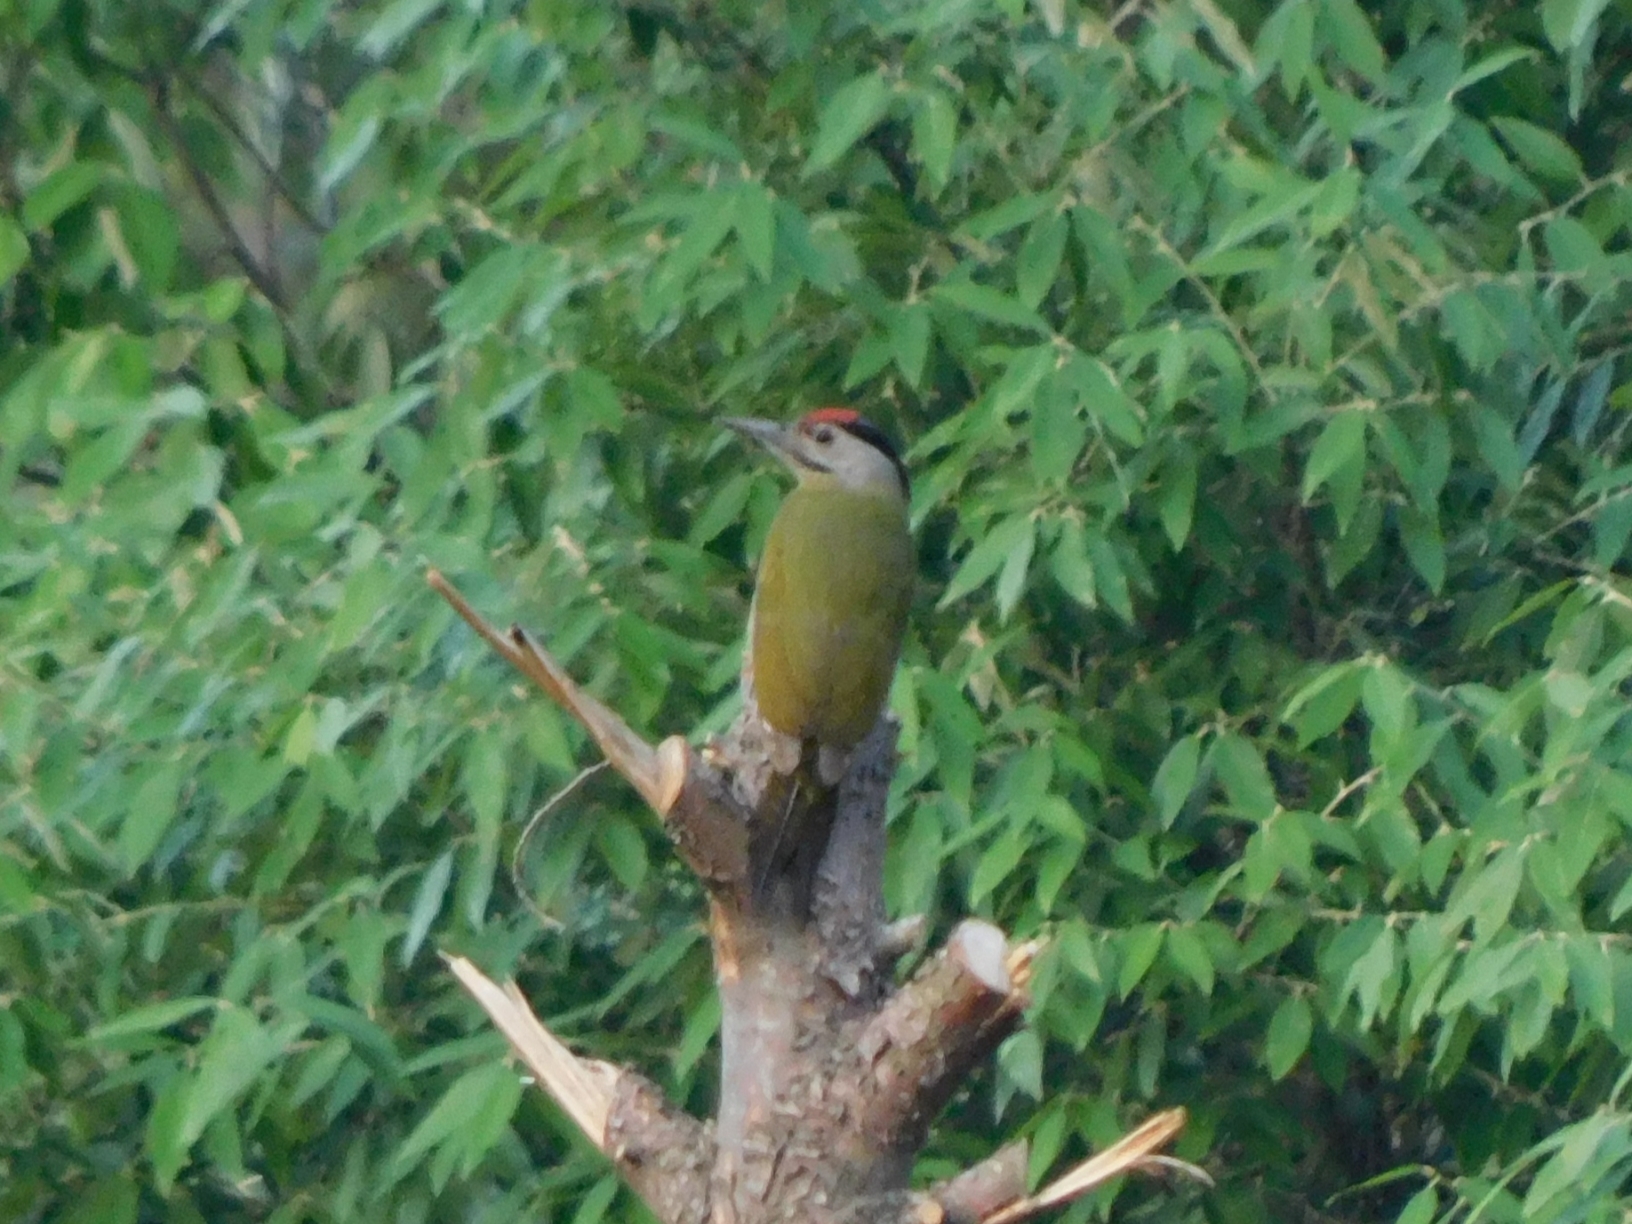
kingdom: Animalia
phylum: Chordata
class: Aves
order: Piciformes
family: Picidae
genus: Picus
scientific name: Picus canus
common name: Grey-headed woodpecker
